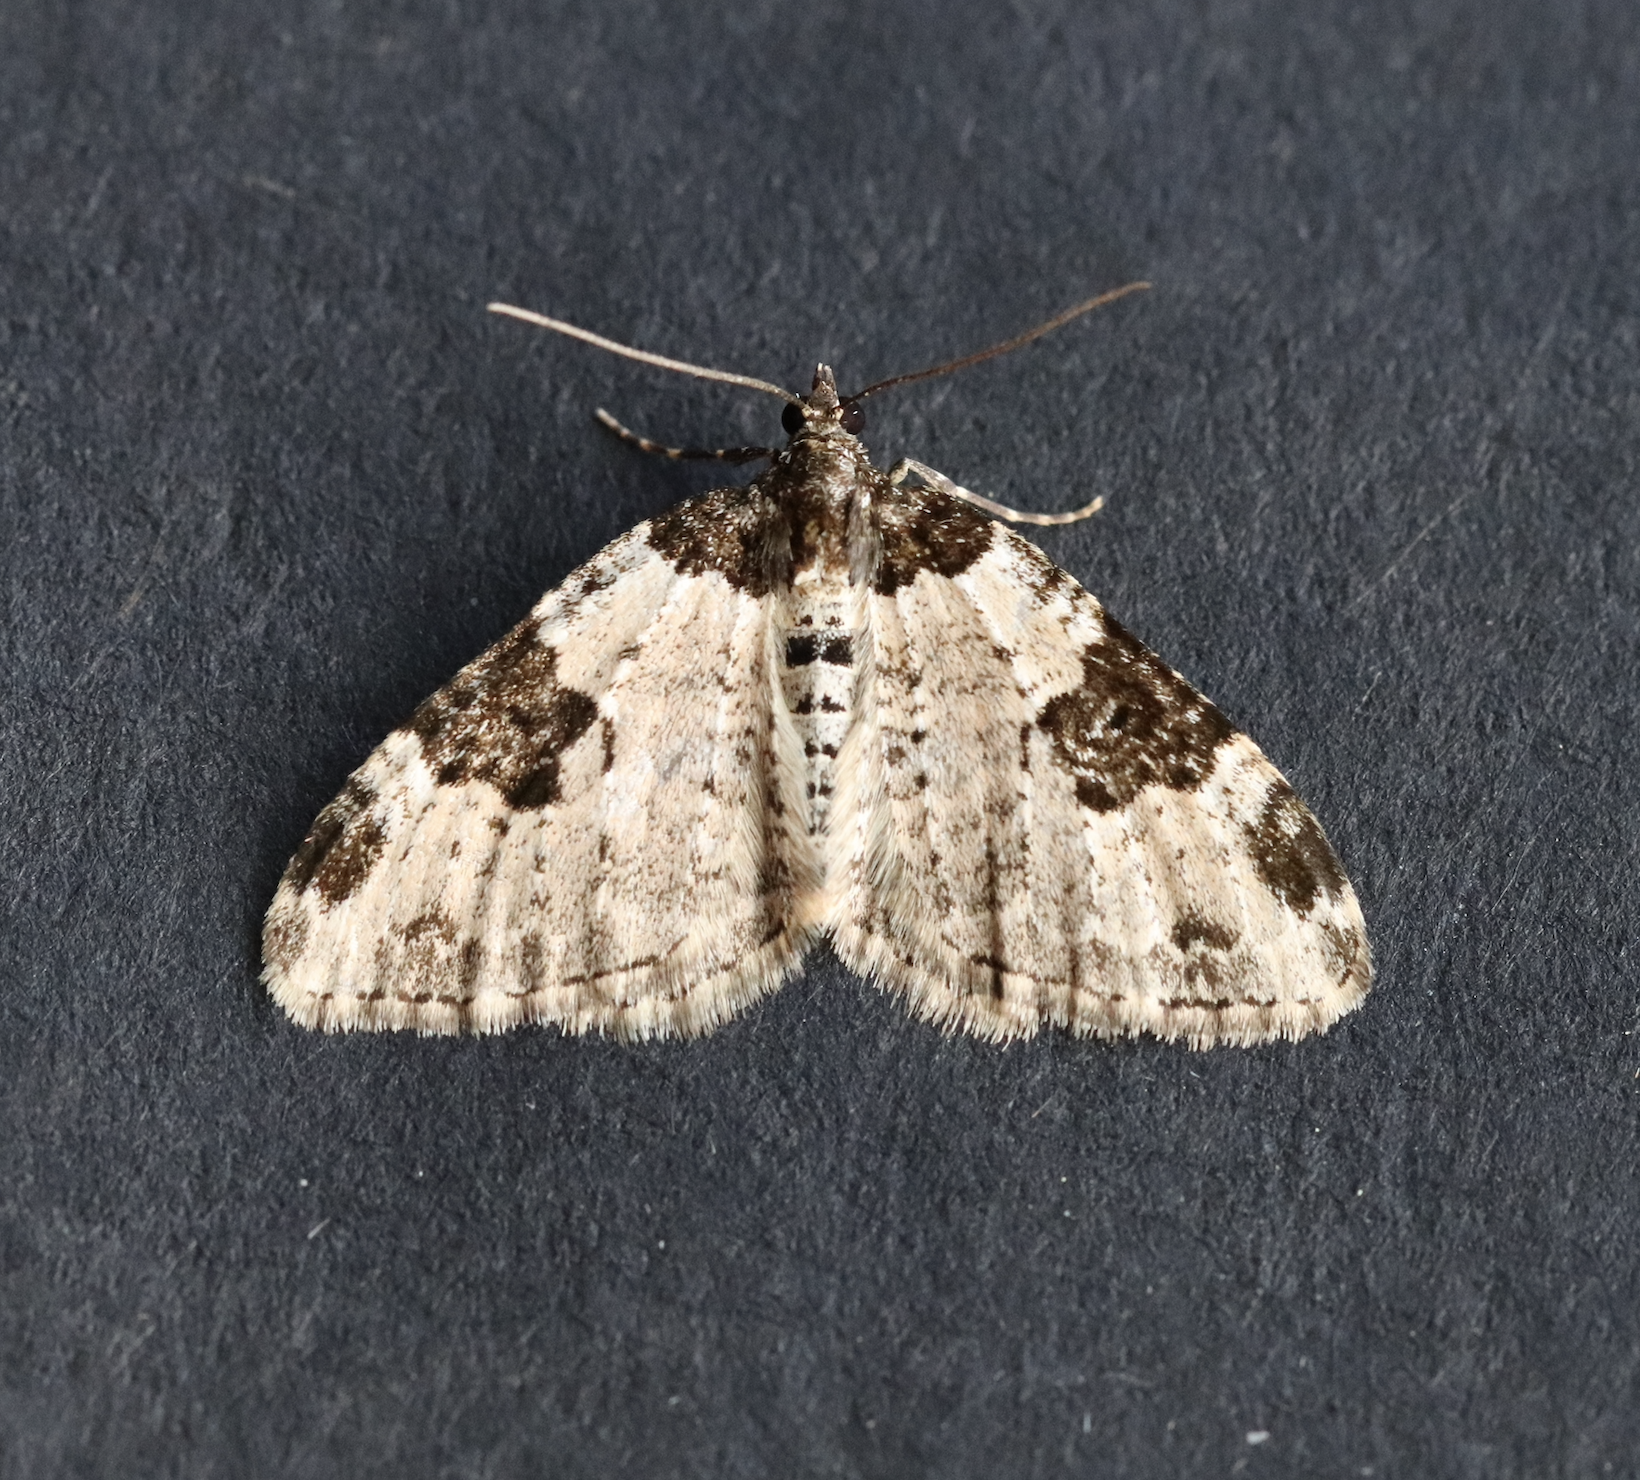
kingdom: Animalia
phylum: Arthropoda
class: Insecta
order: Lepidoptera
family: Geometridae
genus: Xanthorhoe
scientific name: Xanthorhoe fluctuata
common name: Garden carpet
